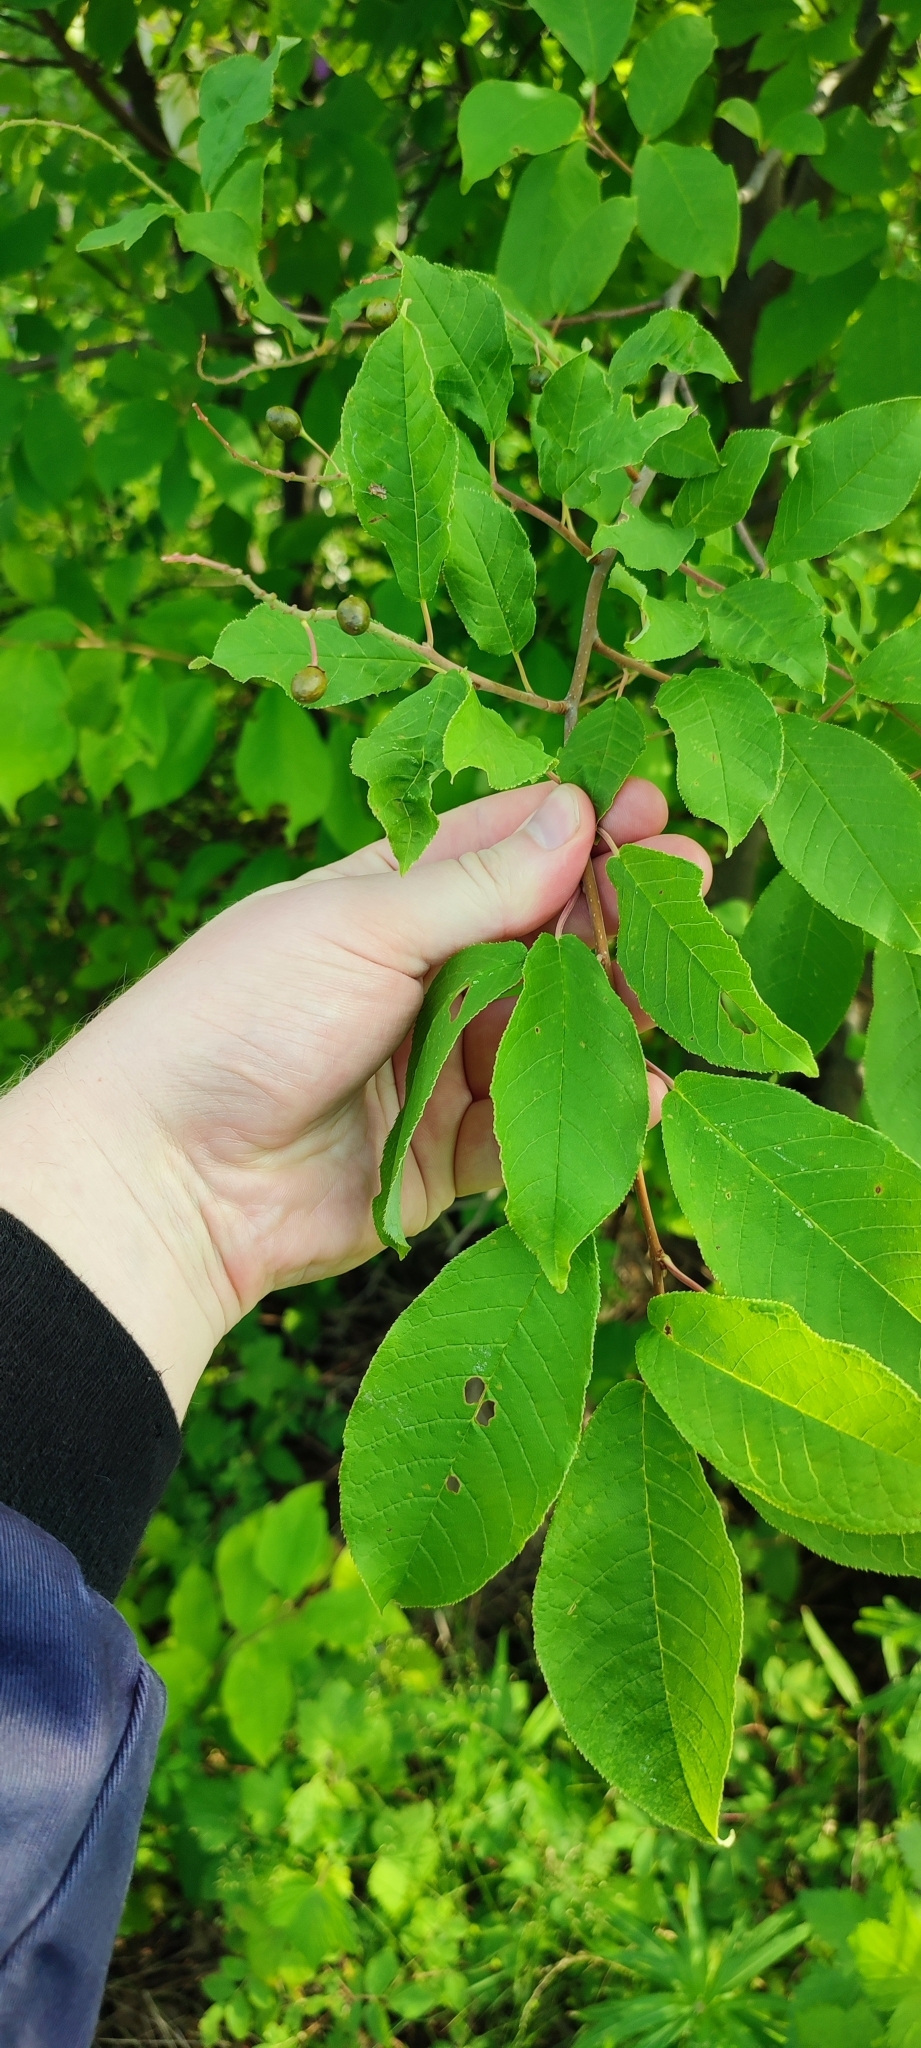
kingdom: Plantae
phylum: Tracheophyta
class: Magnoliopsida
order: Rosales
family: Rosaceae
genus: Prunus
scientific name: Prunus padus
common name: Bird cherry
